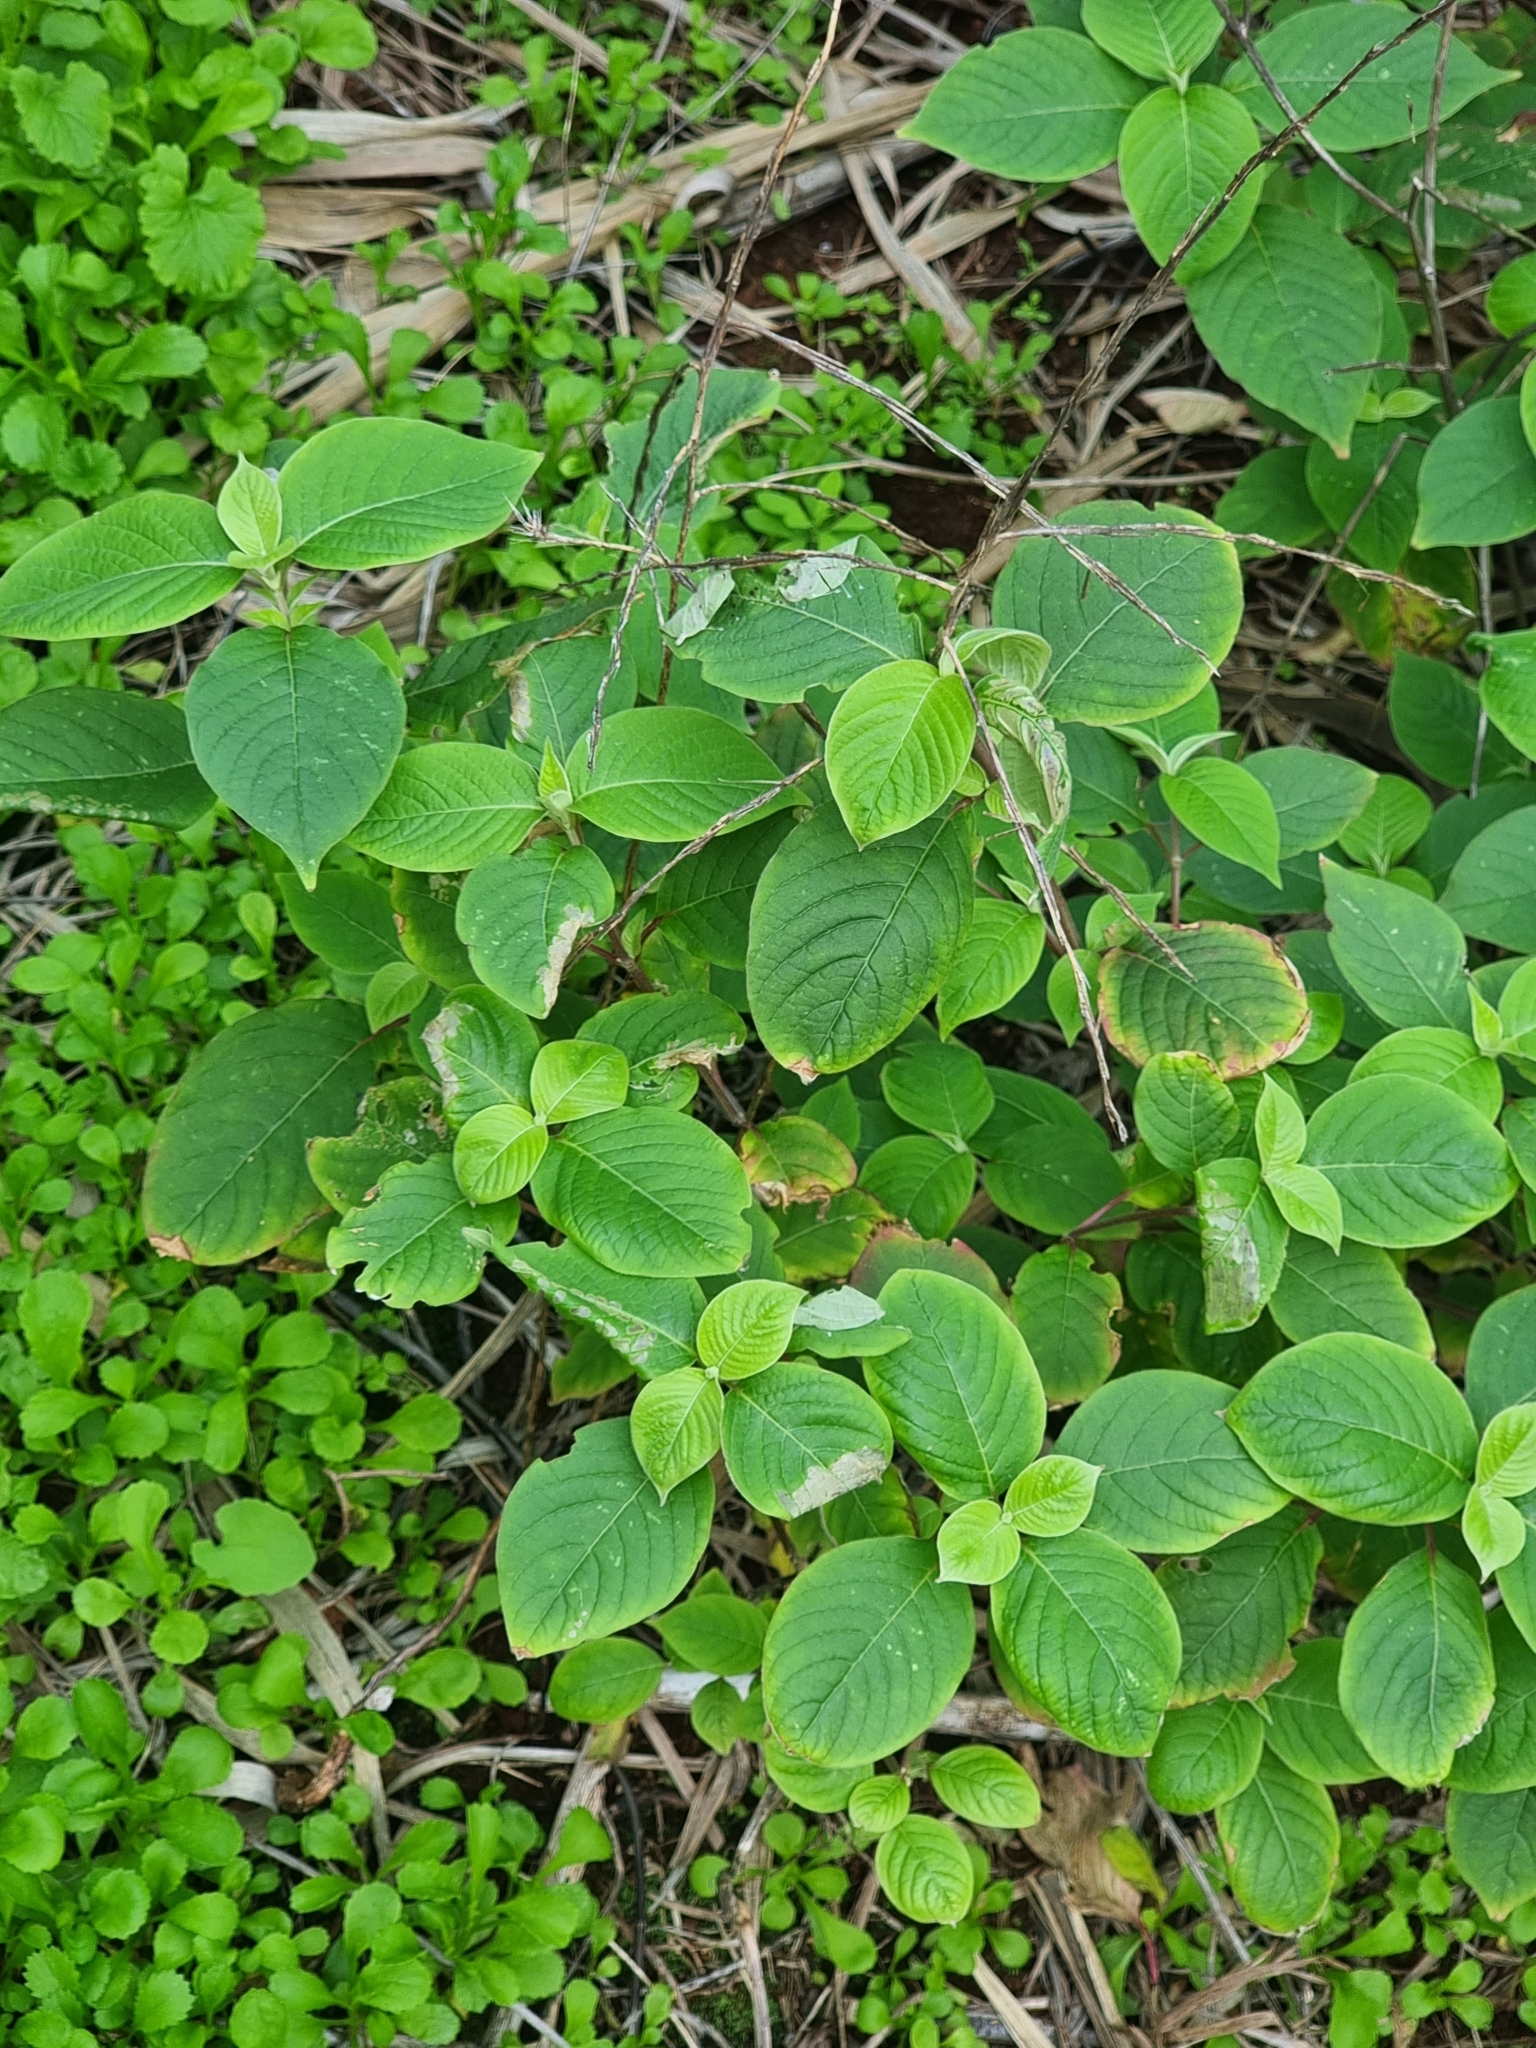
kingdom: Plantae
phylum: Tracheophyta
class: Magnoliopsida
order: Caryophyllales
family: Amaranthaceae
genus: Achyranthes
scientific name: Achyranthes aspera
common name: Devil's horsewhip
